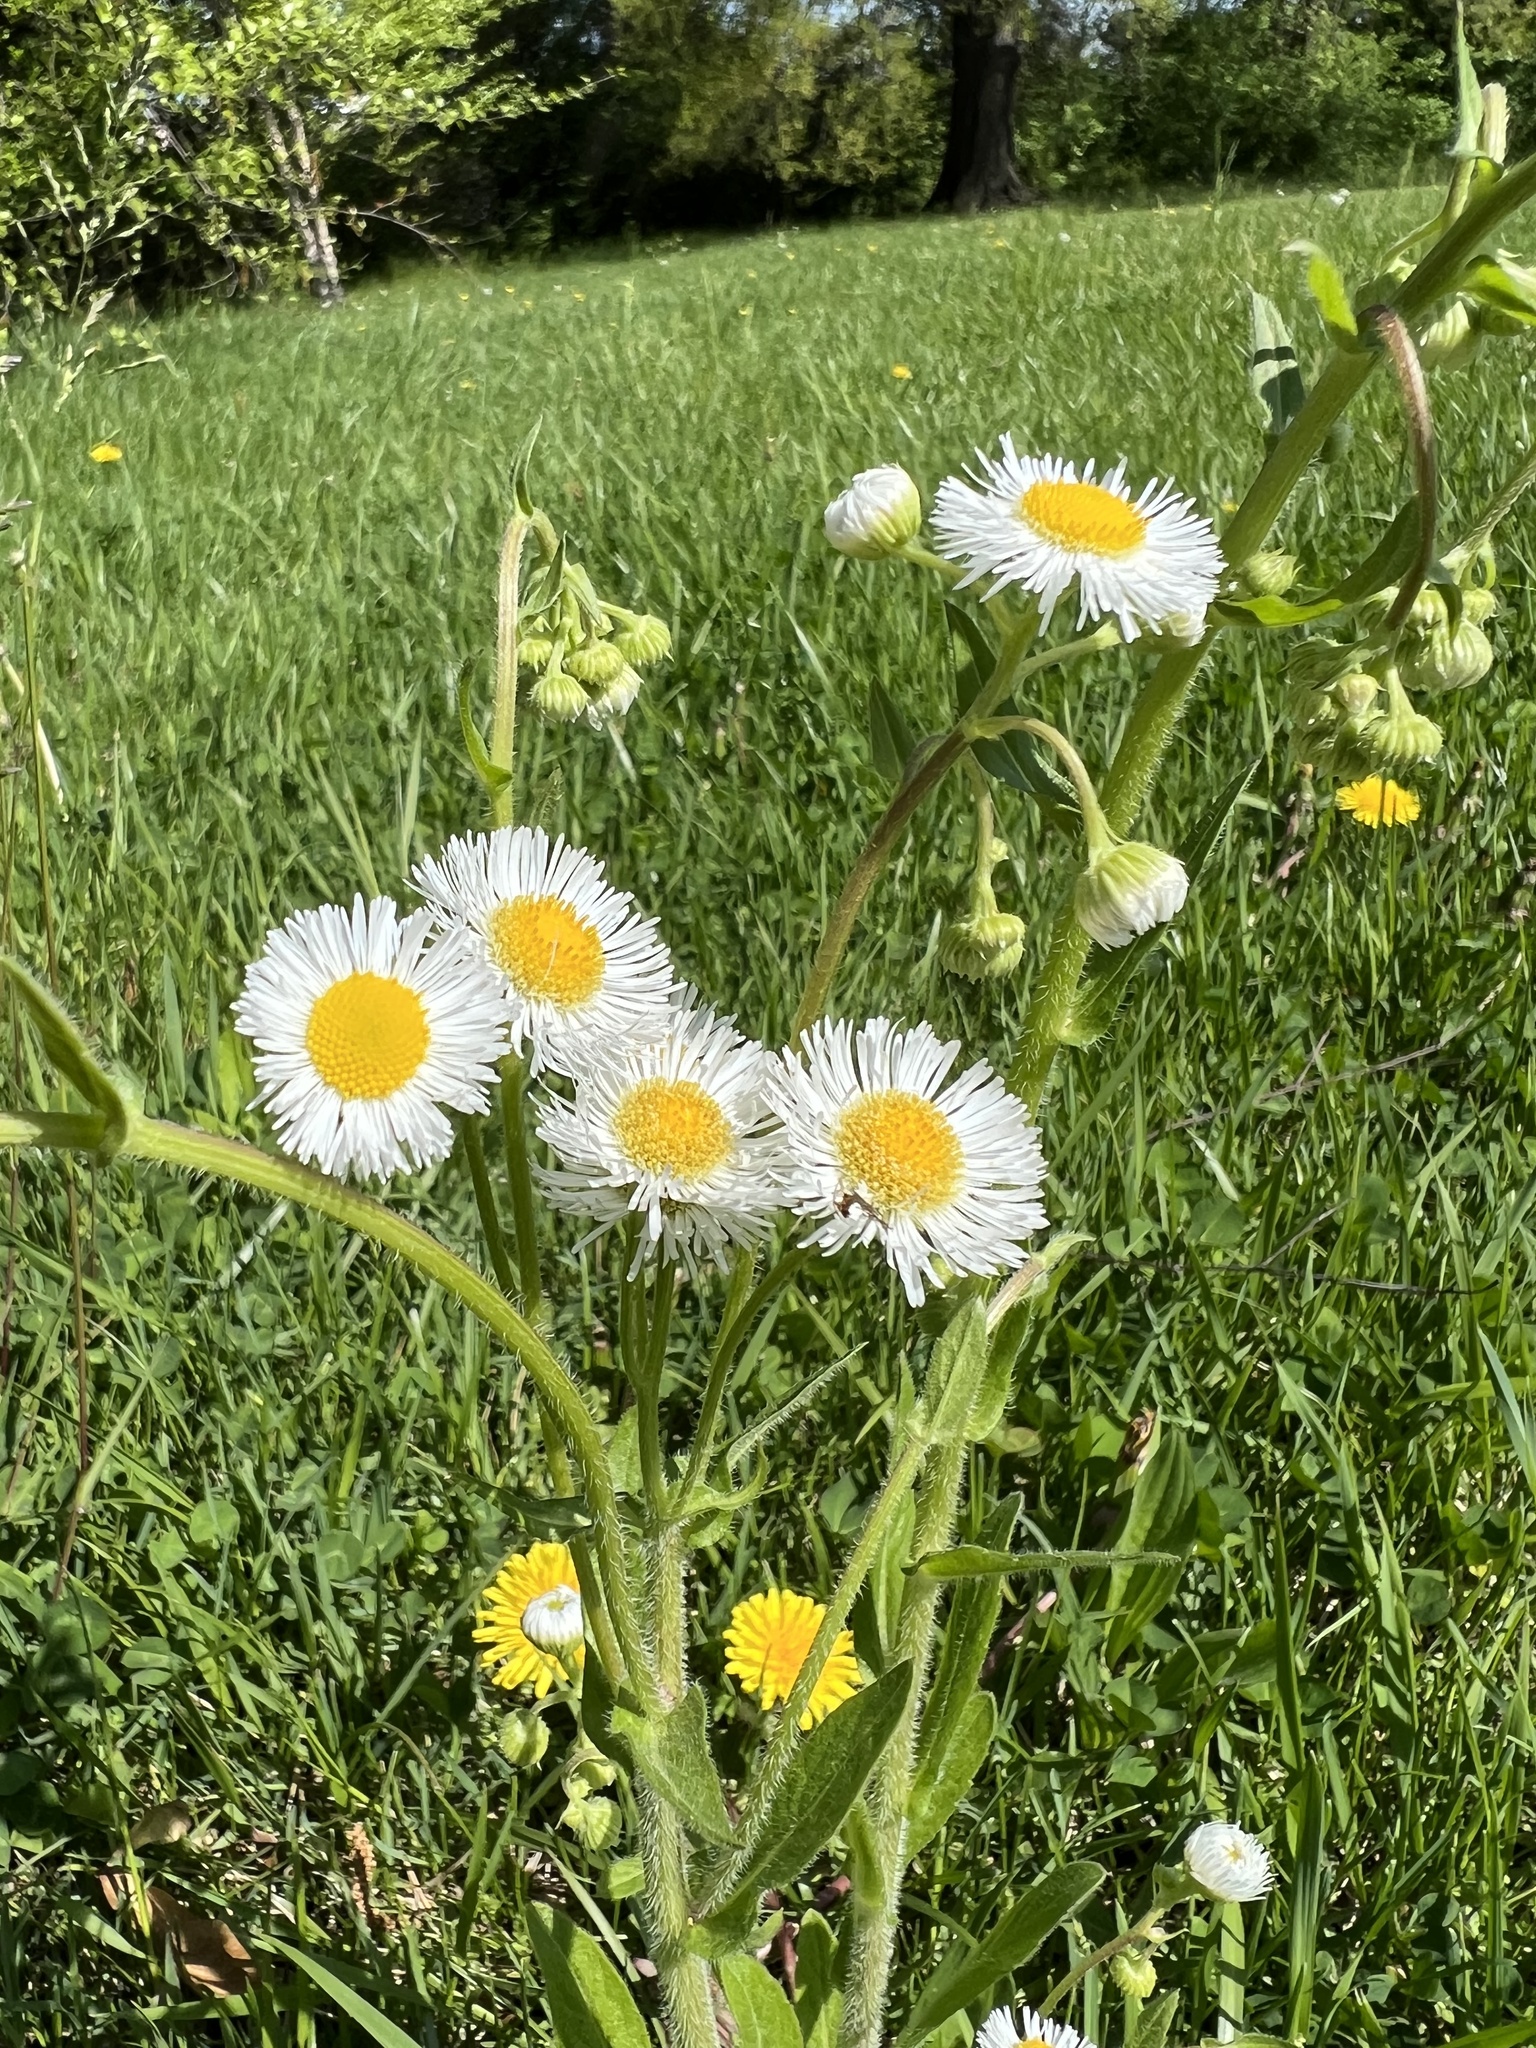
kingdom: Plantae
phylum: Tracheophyta
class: Magnoliopsida
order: Asterales
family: Asteraceae
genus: Erigeron
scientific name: Erigeron philadelphicus
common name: Robin's-plantain
